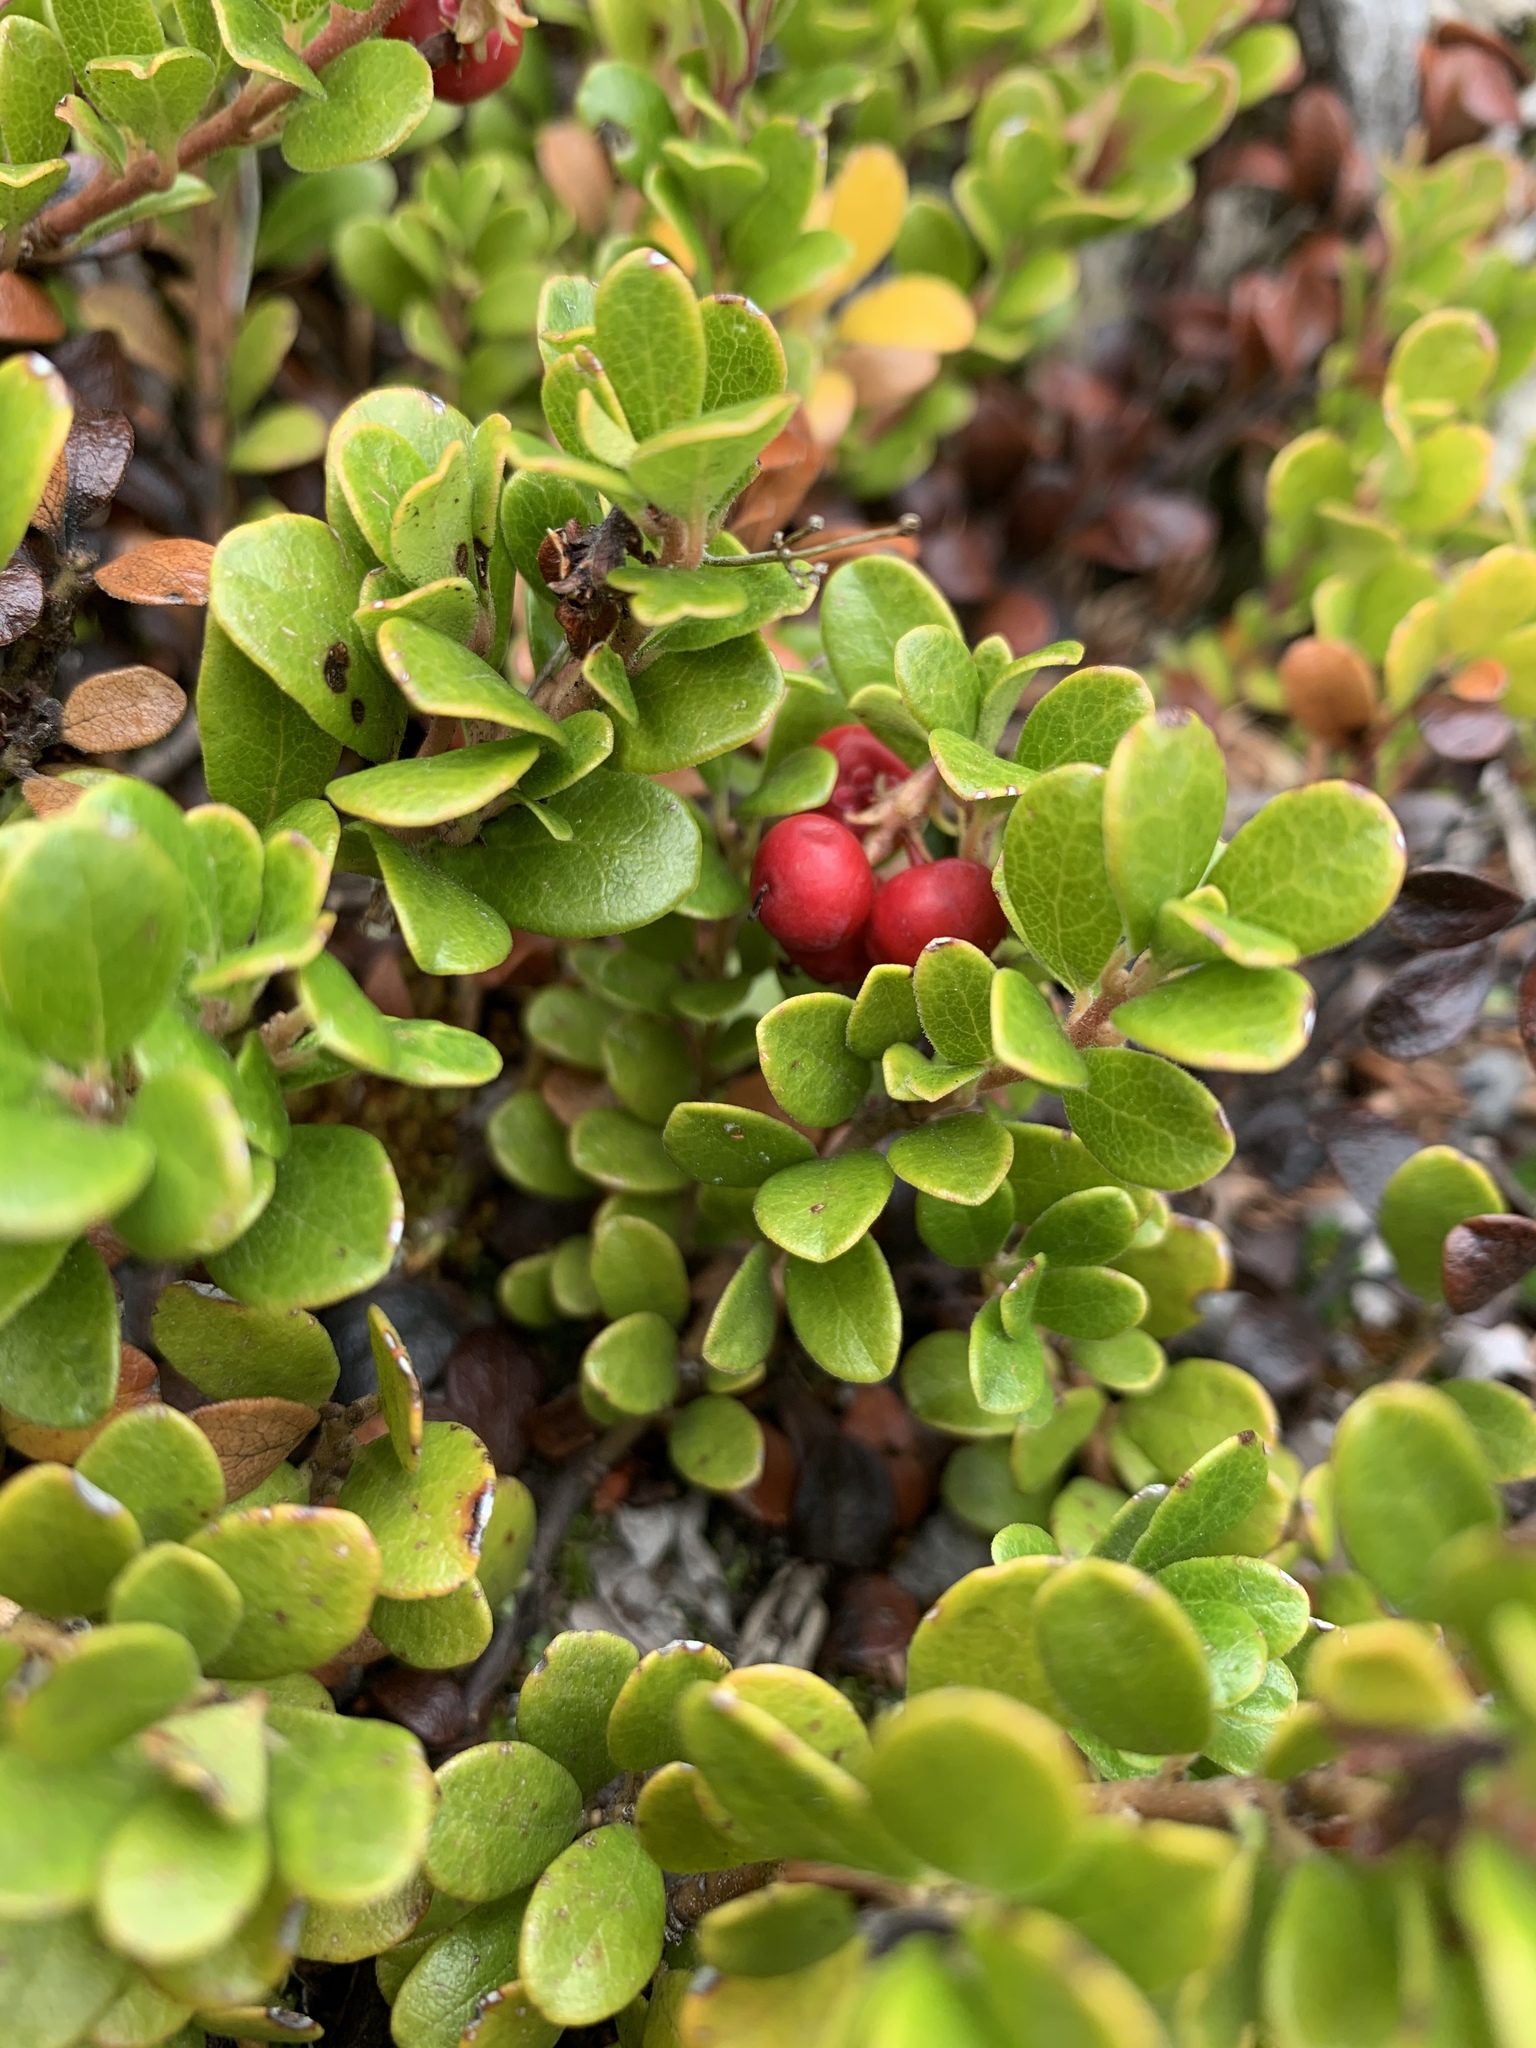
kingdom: Plantae
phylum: Tracheophyta
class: Magnoliopsida
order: Ericales
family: Ericaceae
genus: Arctostaphylos
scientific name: Arctostaphylos uva-ursi
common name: Bearberry
